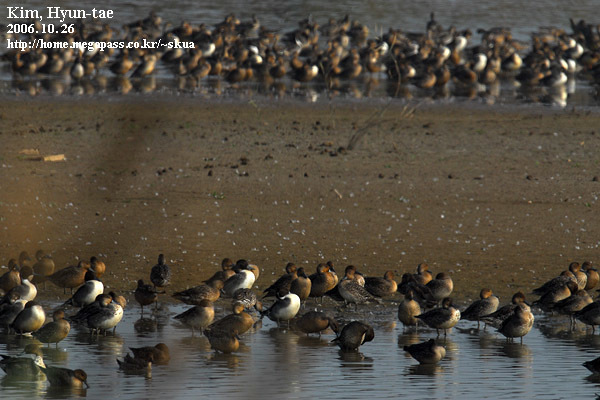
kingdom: Animalia
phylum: Chordata
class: Aves
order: Anseriformes
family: Anatidae
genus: Anas
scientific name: Anas acuta
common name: Northern pintail
